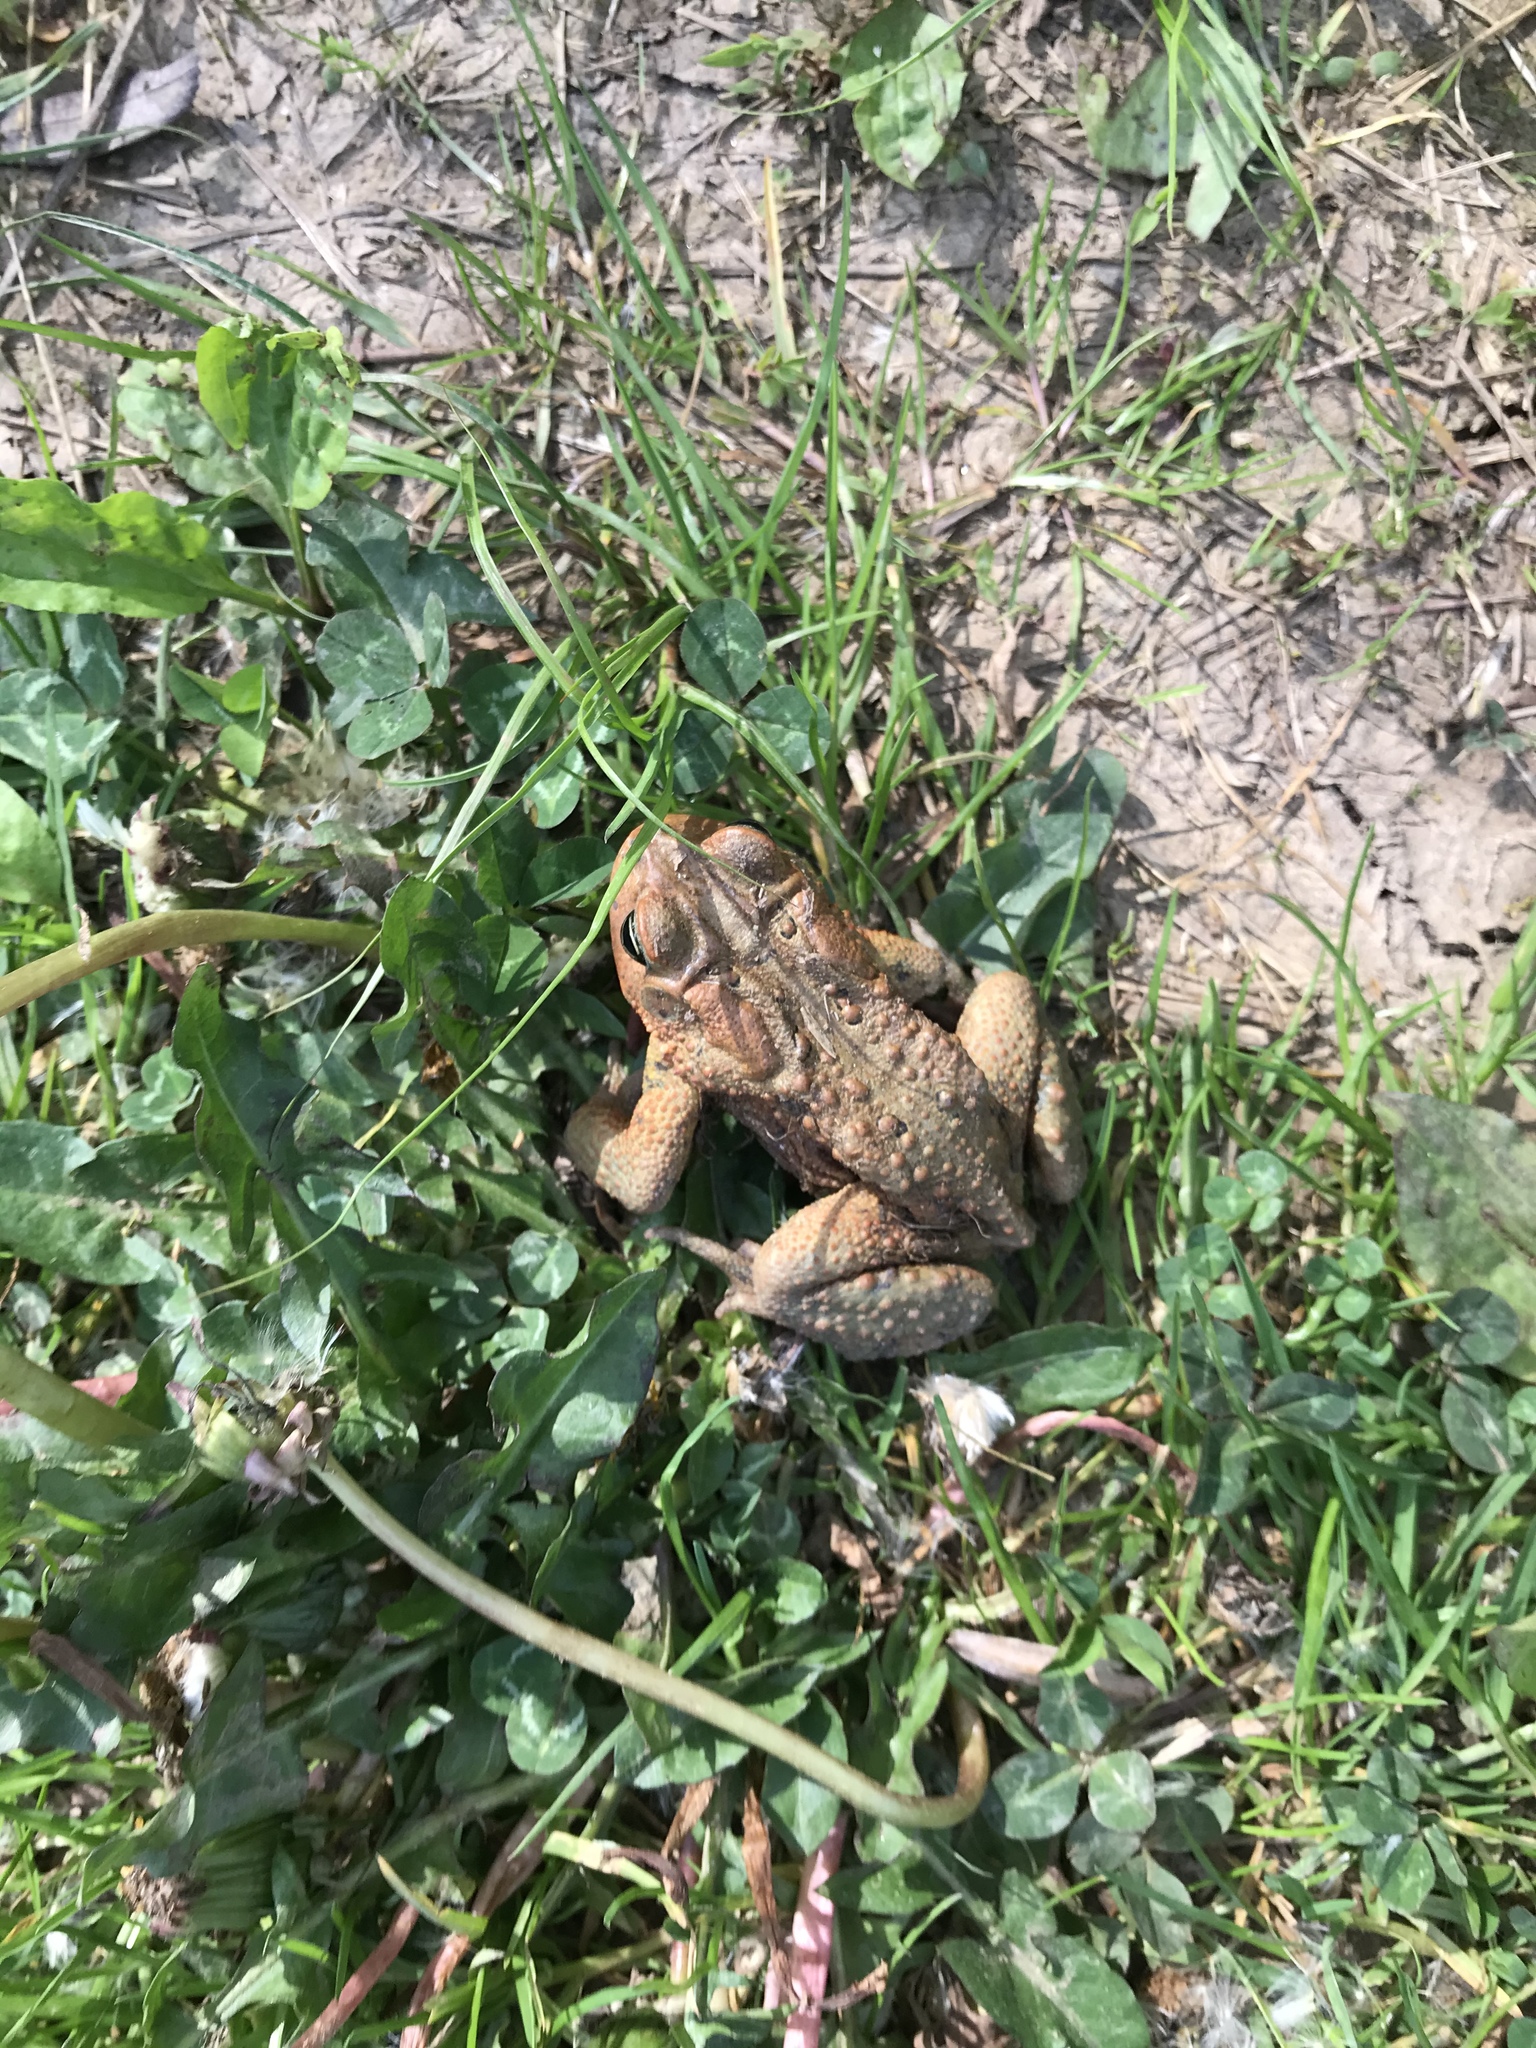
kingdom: Animalia
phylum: Chordata
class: Amphibia
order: Anura
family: Bufonidae
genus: Anaxyrus
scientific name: Anaxyrus americanus
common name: American toad
